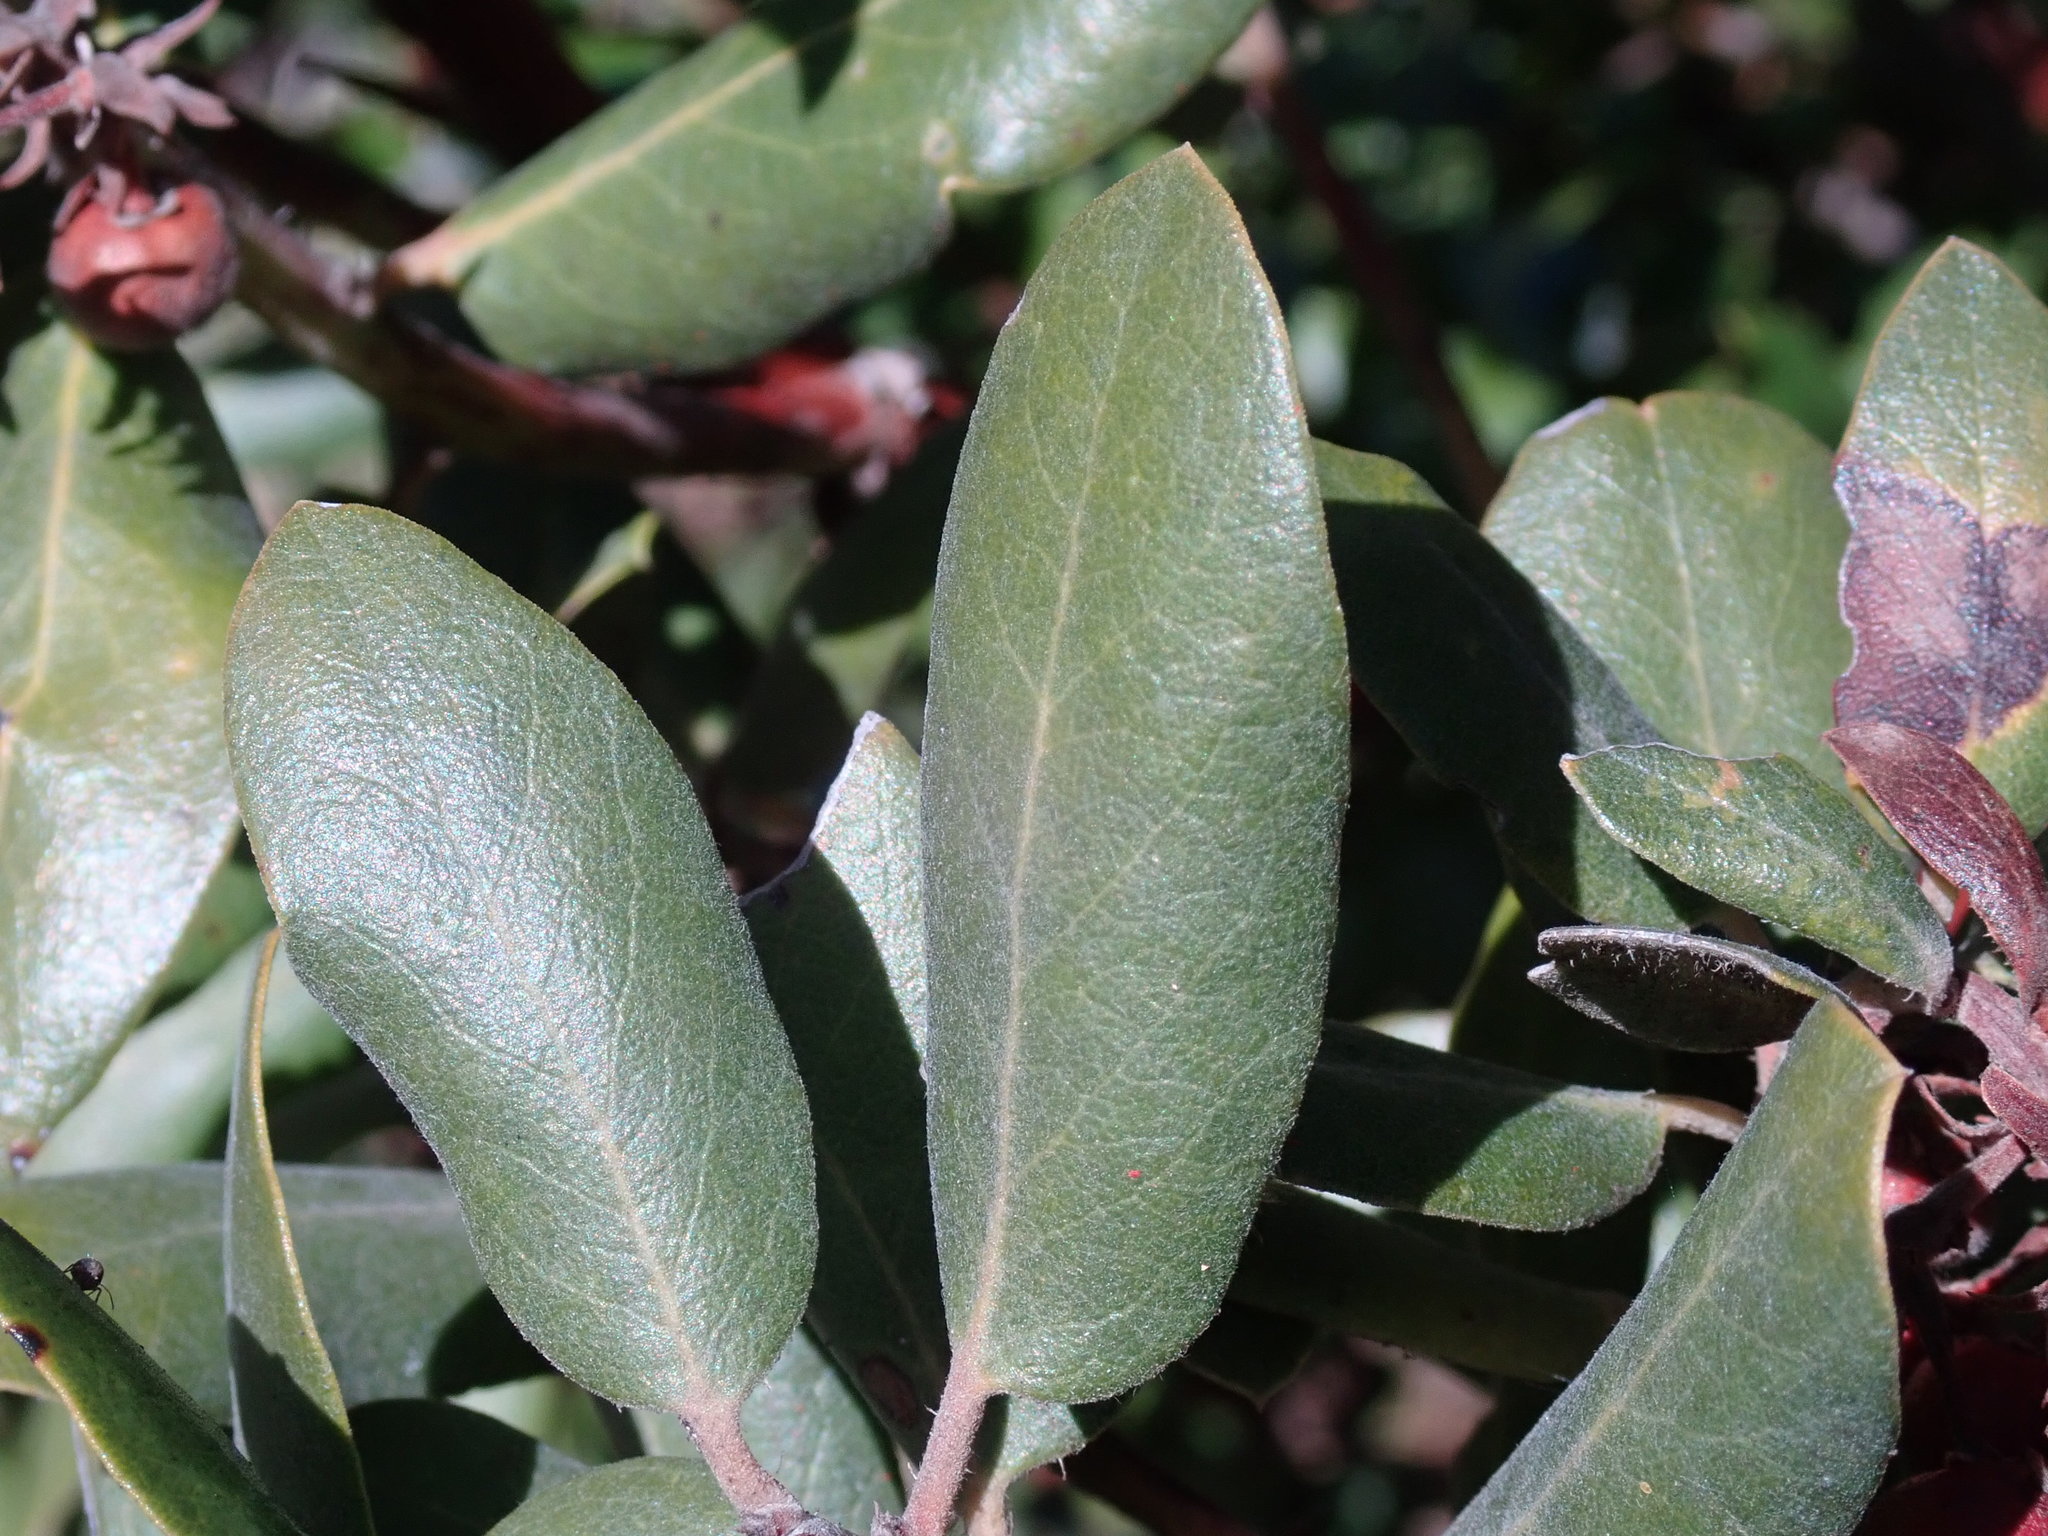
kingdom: Plantae
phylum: Tracheophyta
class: Magnoliopsida
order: Ericales
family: Ericaceae
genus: Arctostaphylos
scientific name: Arctostaphylos tomentosa
